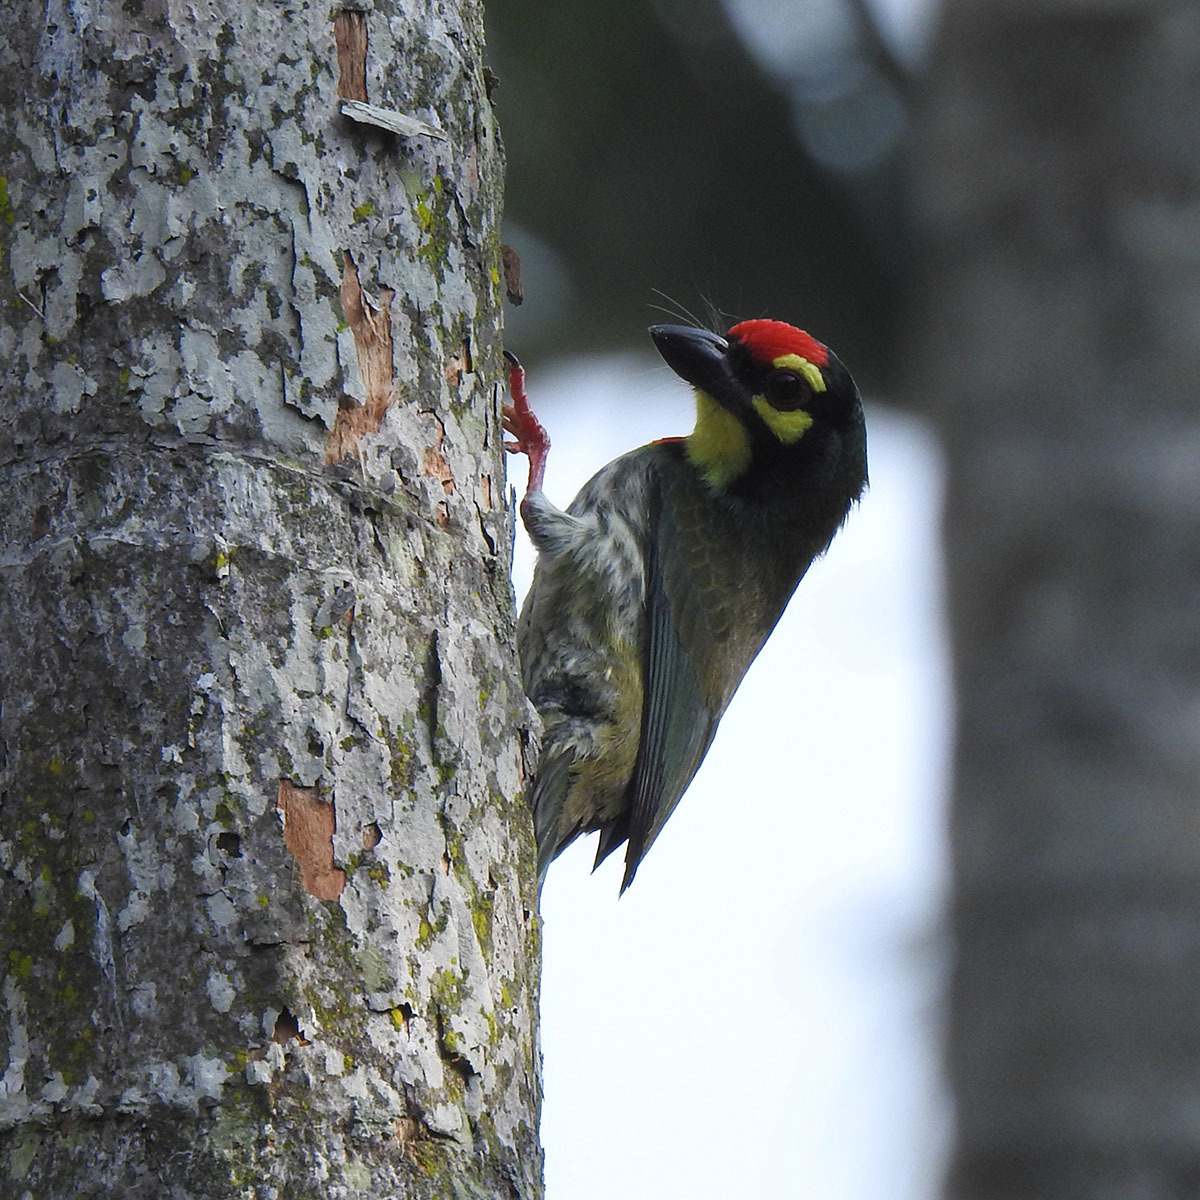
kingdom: Animalia
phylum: Chordata
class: Aves
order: Piciformes
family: Megalaimidae
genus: Psilopogon
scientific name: Psilopogon haemacephalus
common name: Coppersmith barbet
